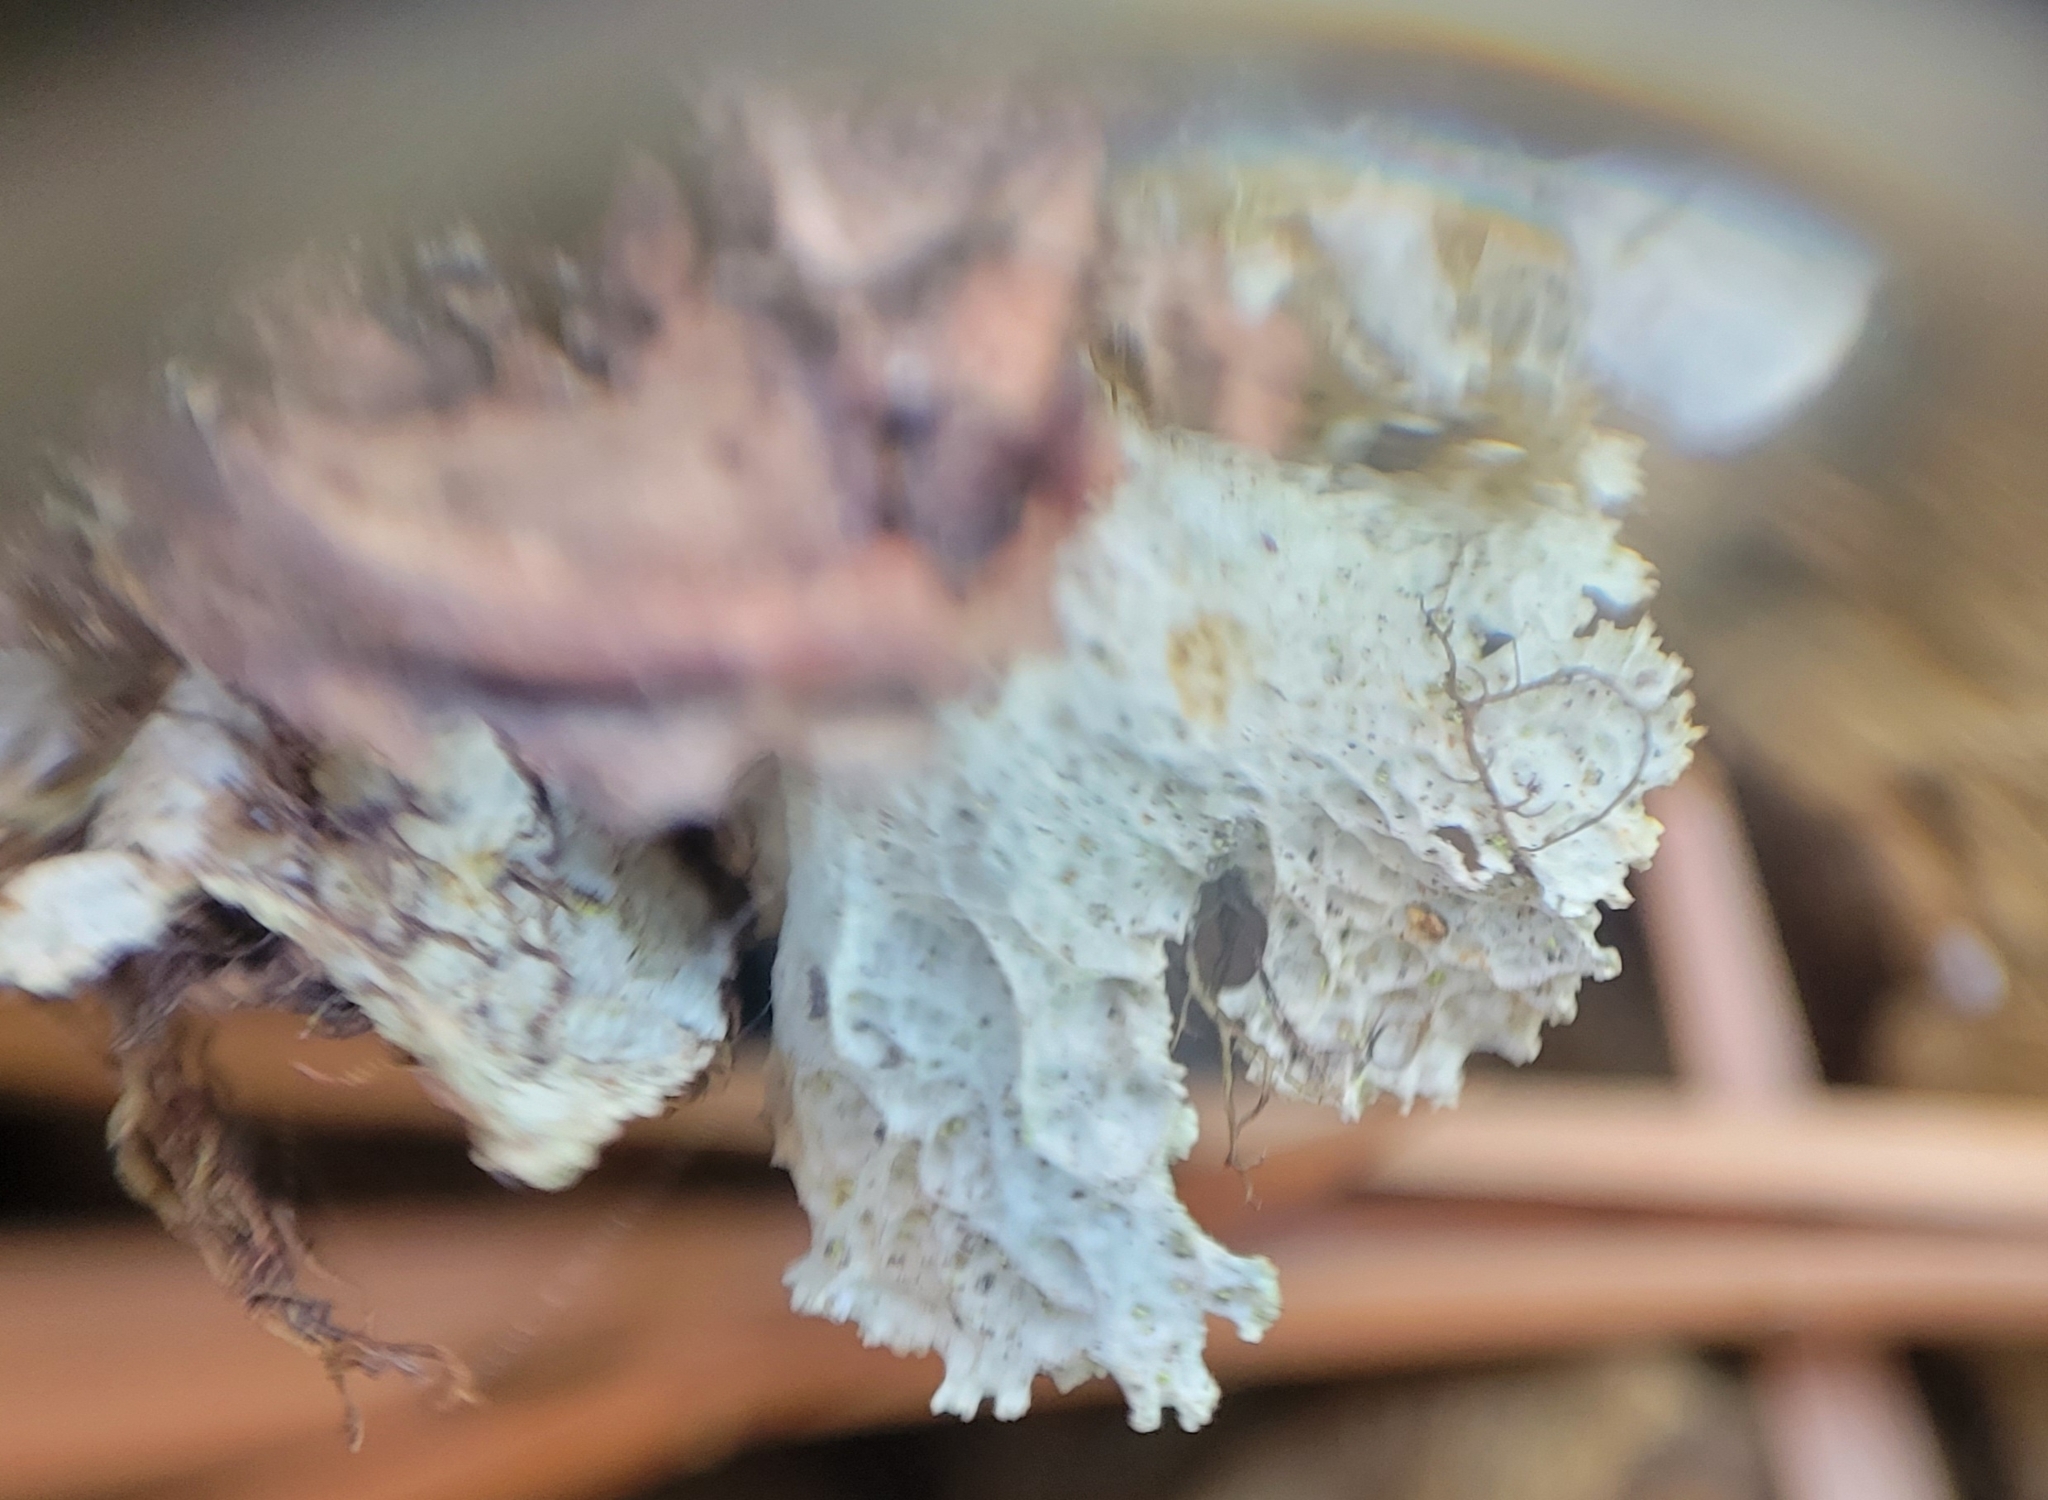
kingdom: Fungi
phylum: Ascomycota
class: Lecanoromycetes
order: Lecanorales
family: Parmeliaceae
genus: Ahtiana
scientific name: Ahtiana pallidula
